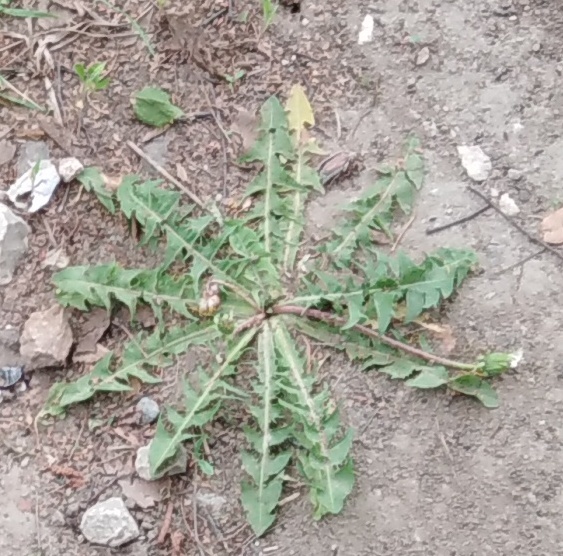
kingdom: Plantae
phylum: Tracheophyta
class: Magnoliopsida
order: Asterales
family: Asteraceae
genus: Taraxacum
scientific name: Taraxacum officinale
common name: Common dandelion
